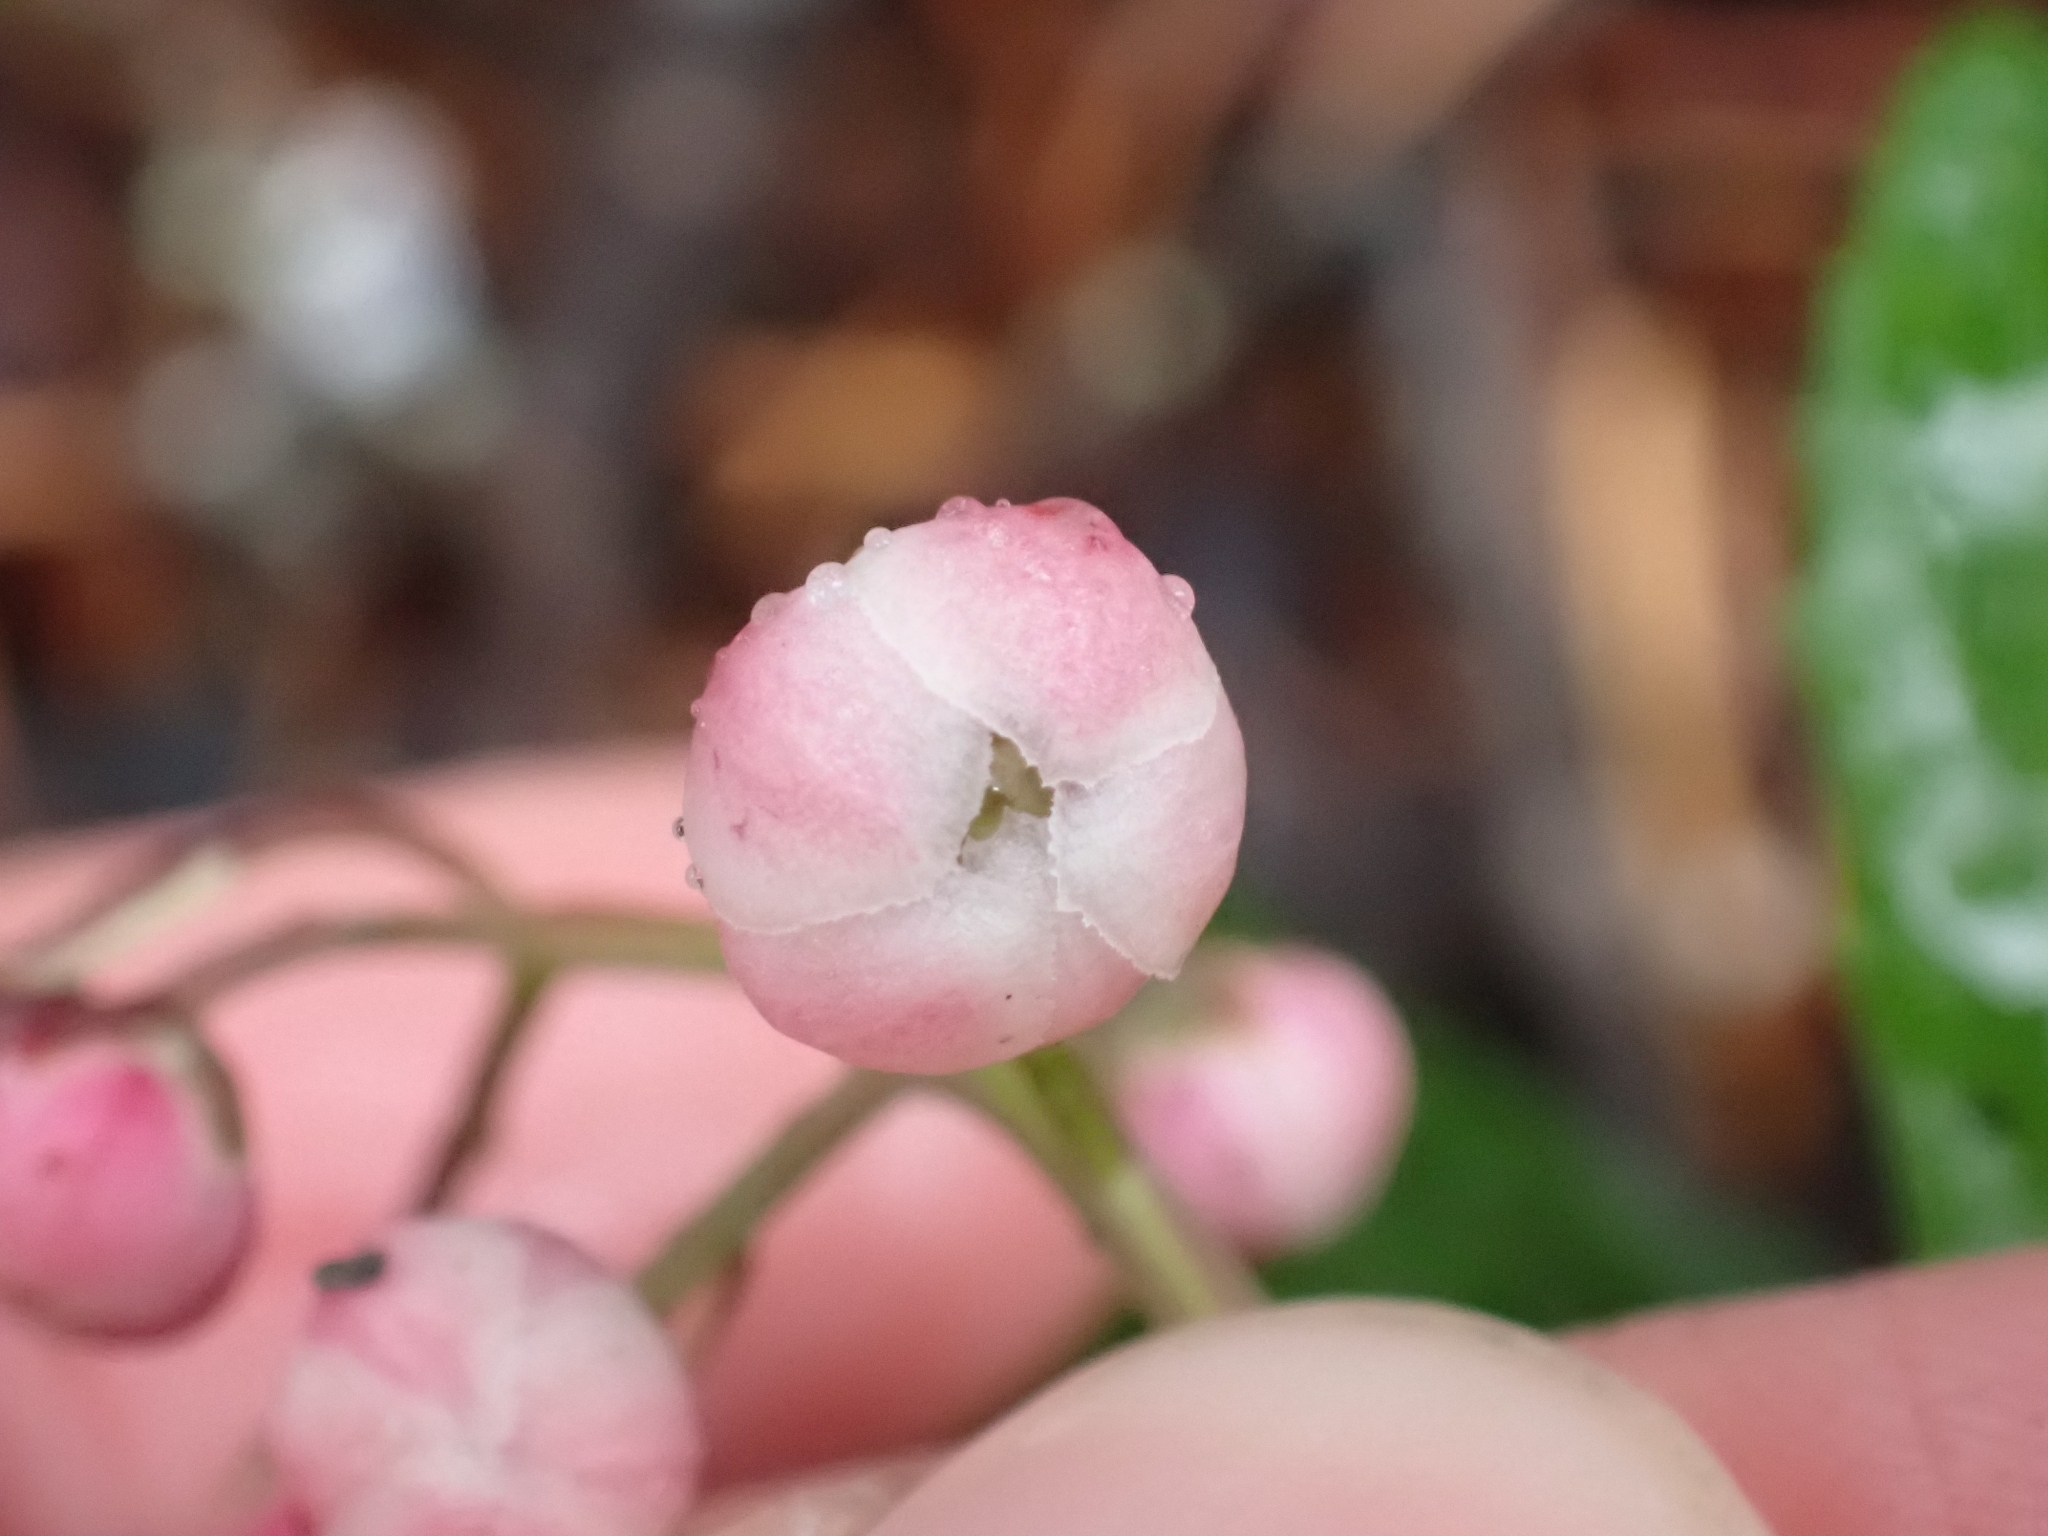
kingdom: Plantae
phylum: Tracheophyta
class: Magnoliopsida
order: Ericales
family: Ericaceae
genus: Chimaphila
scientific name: Chimaphila umbellata
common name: Pipsissewa
